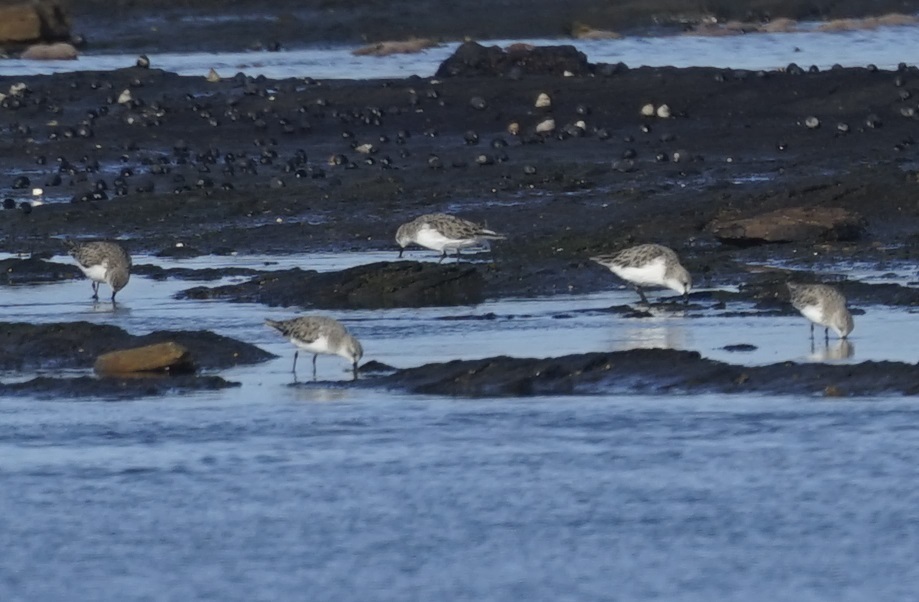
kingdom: Animalia
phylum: Chordata
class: Aves
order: Charadriiformes
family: Scolopacidae
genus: Calidris
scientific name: Calidris ruficollis
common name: Red-necked stint
